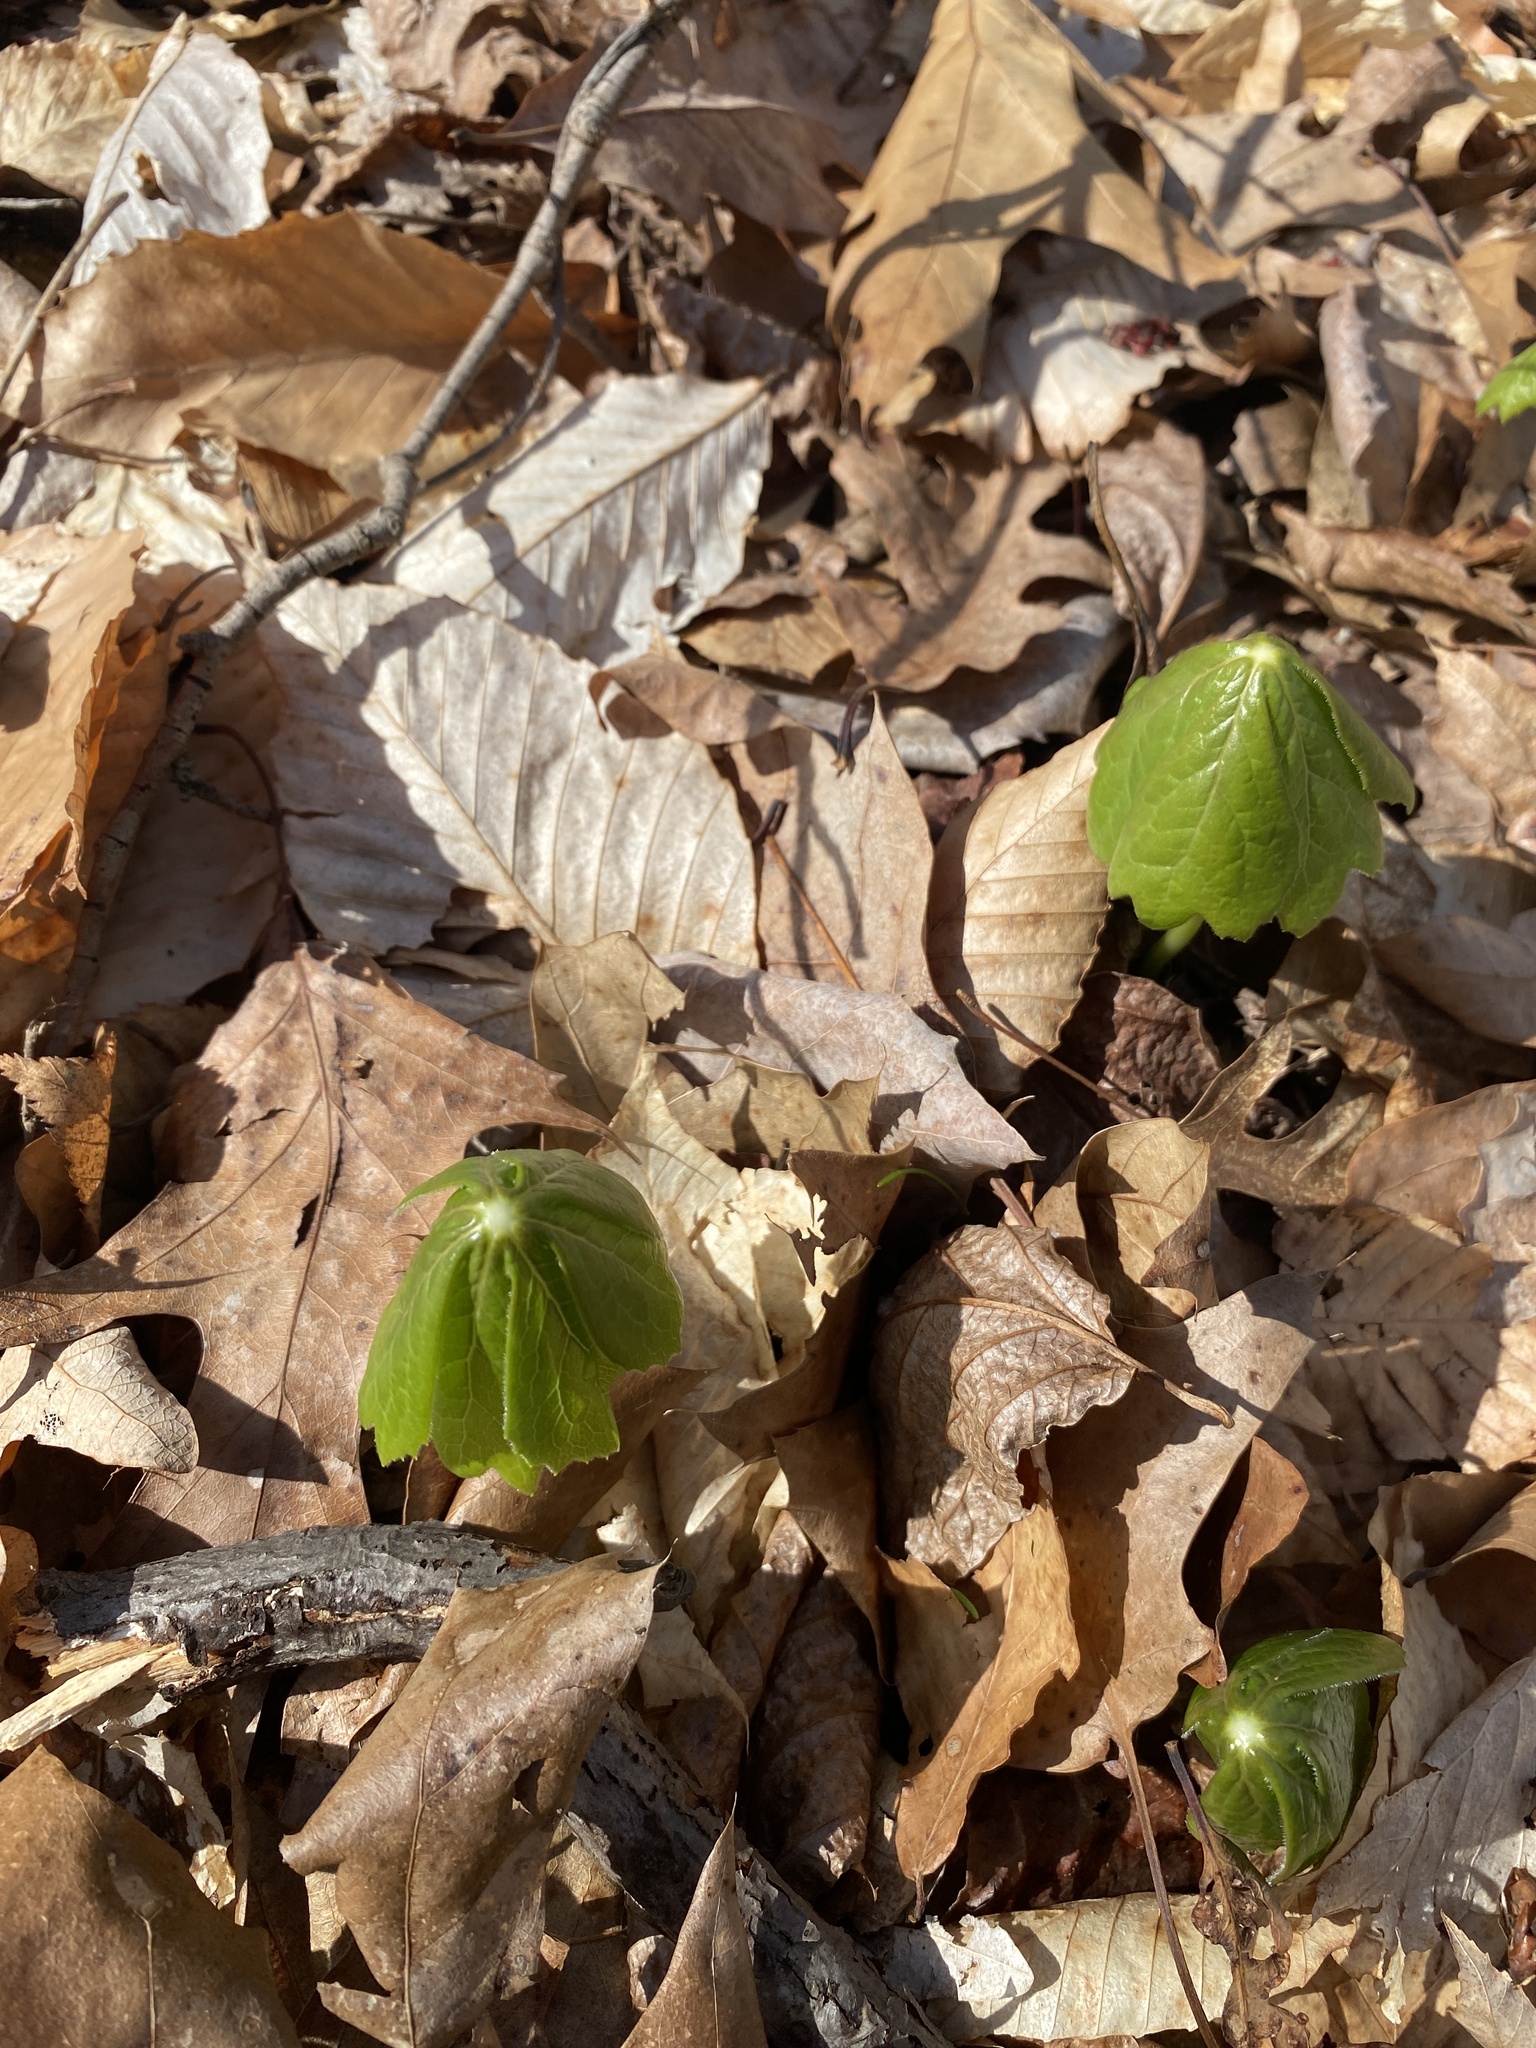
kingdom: Plantae
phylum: Tracheophyta
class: Magnoliopsida
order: Ranunculales
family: Berberidaceae
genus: Podophyllum
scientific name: Podophyllum peltatum
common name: Wild mandrake
